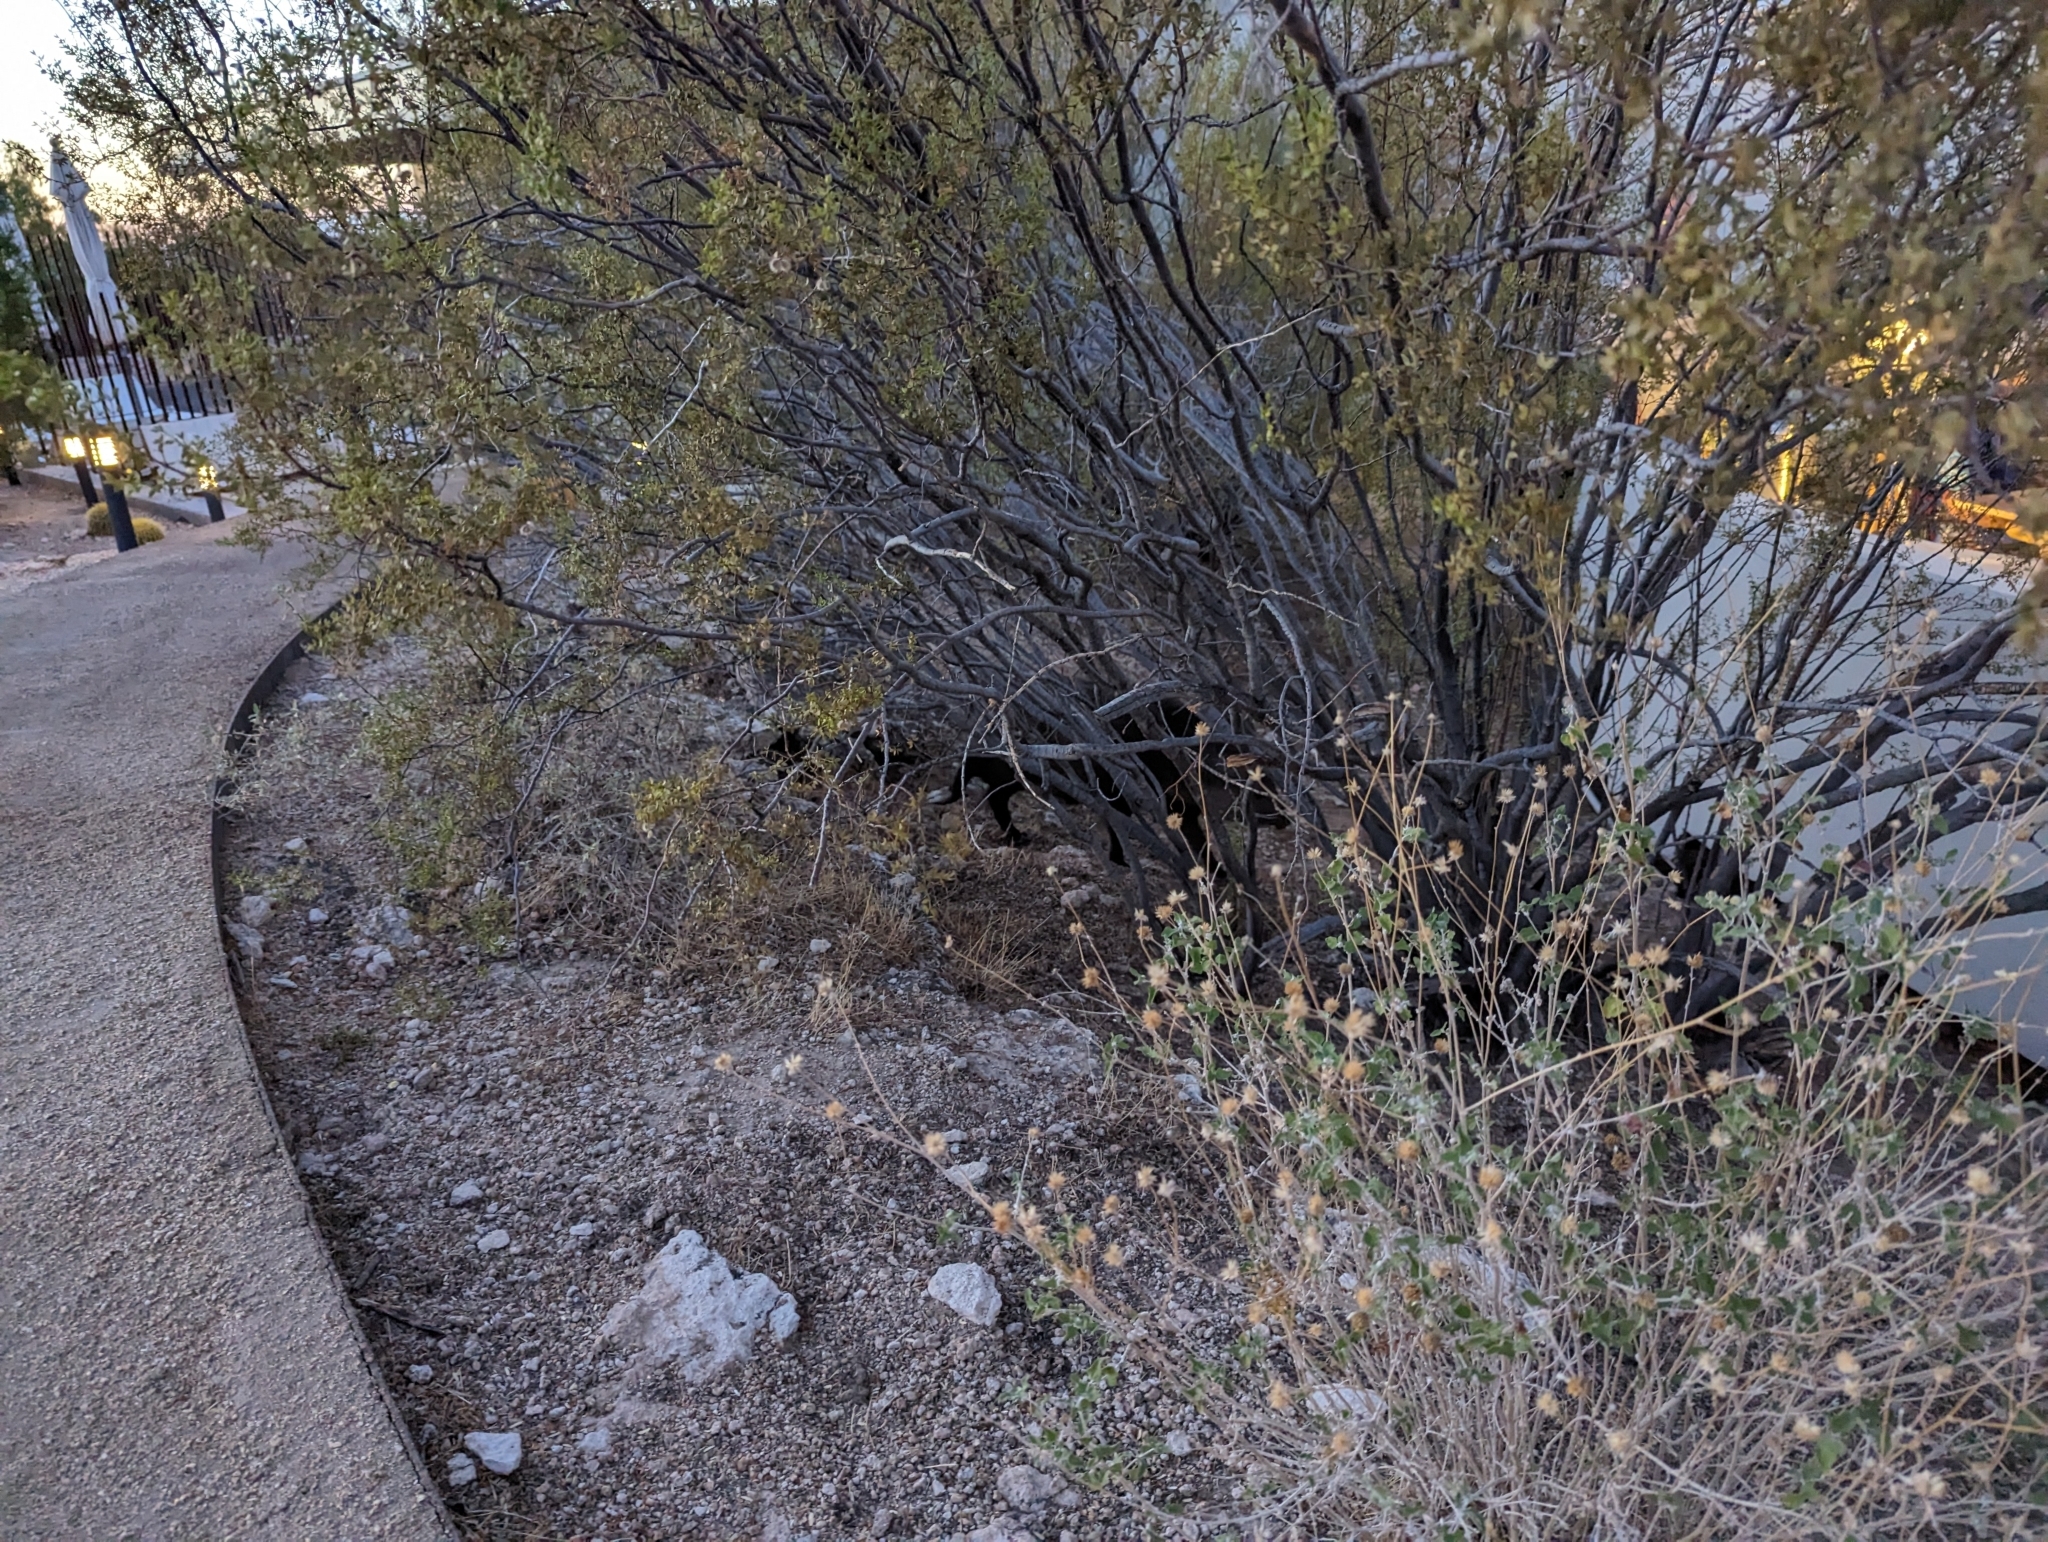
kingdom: Animalia
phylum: Chordata
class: Mammalia
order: Artiodactyla
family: Tayassuidae
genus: Pecari
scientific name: Pecari tajacu
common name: Collared peccary
